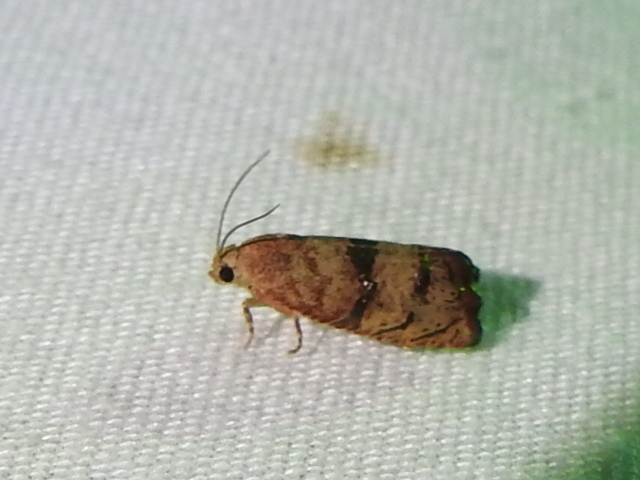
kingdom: Animalia
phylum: Arthropoda
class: Insecta
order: Lepidoptera
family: Tortricidae
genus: Cydia
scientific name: Cydia latiferreana
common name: Filbertworm moth
